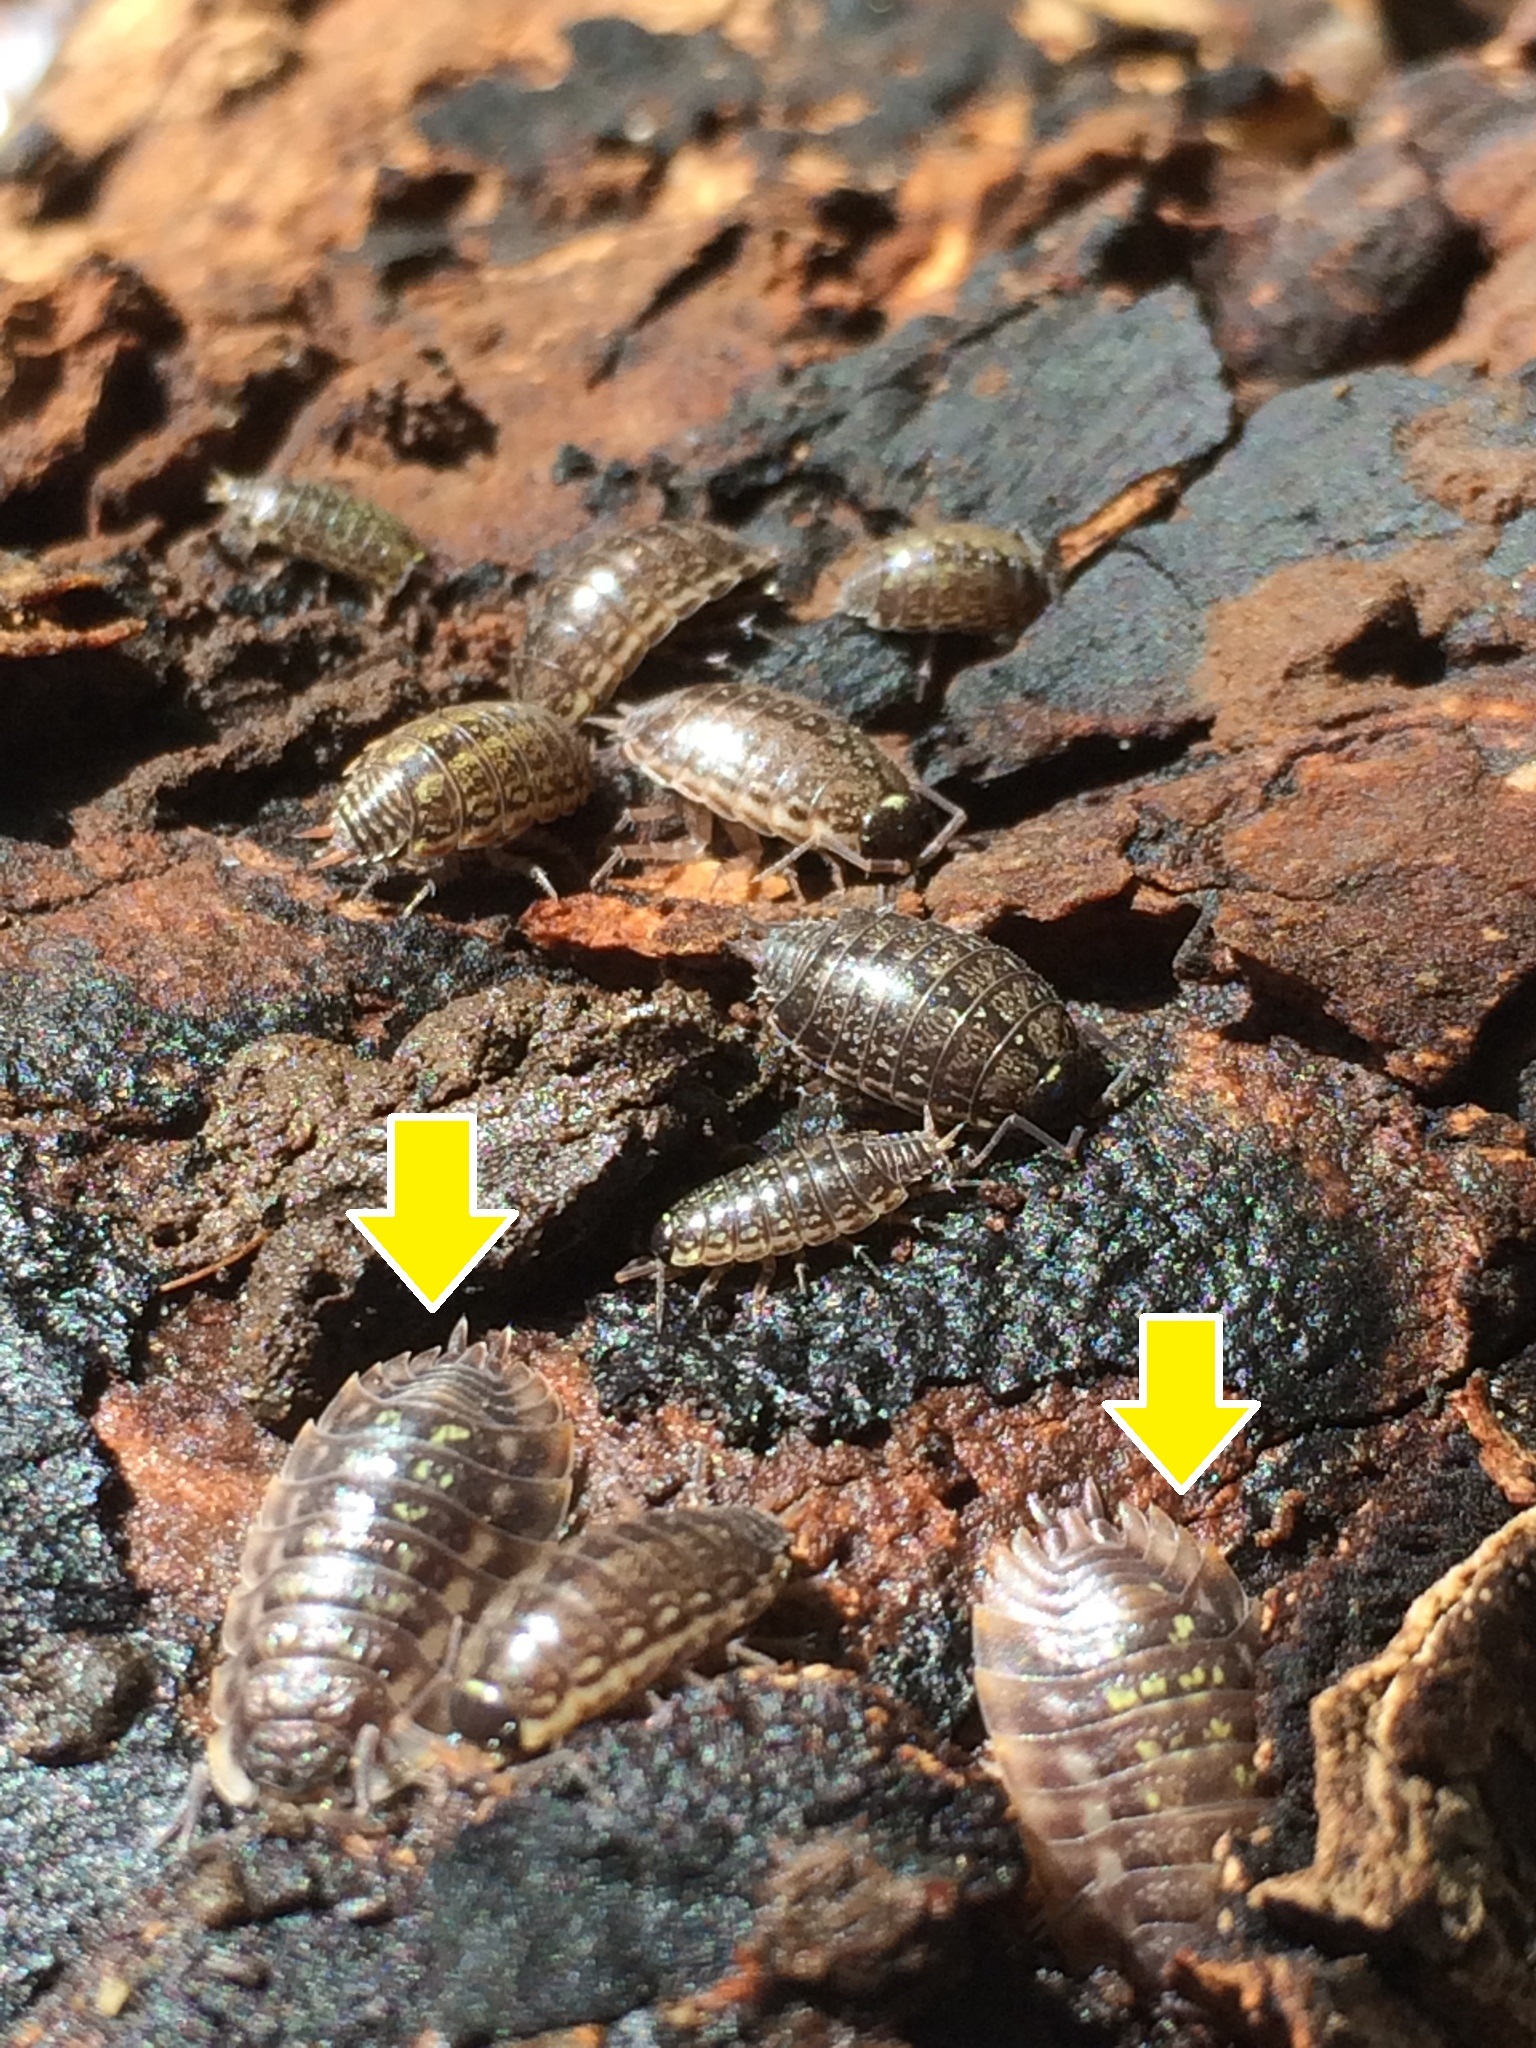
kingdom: Animalia
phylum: Arthropoda
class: Malacostraca
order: Isopoda
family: Oniscidae
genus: Oniscus
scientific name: Oniscus asellus
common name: Common shiny woodlouse
